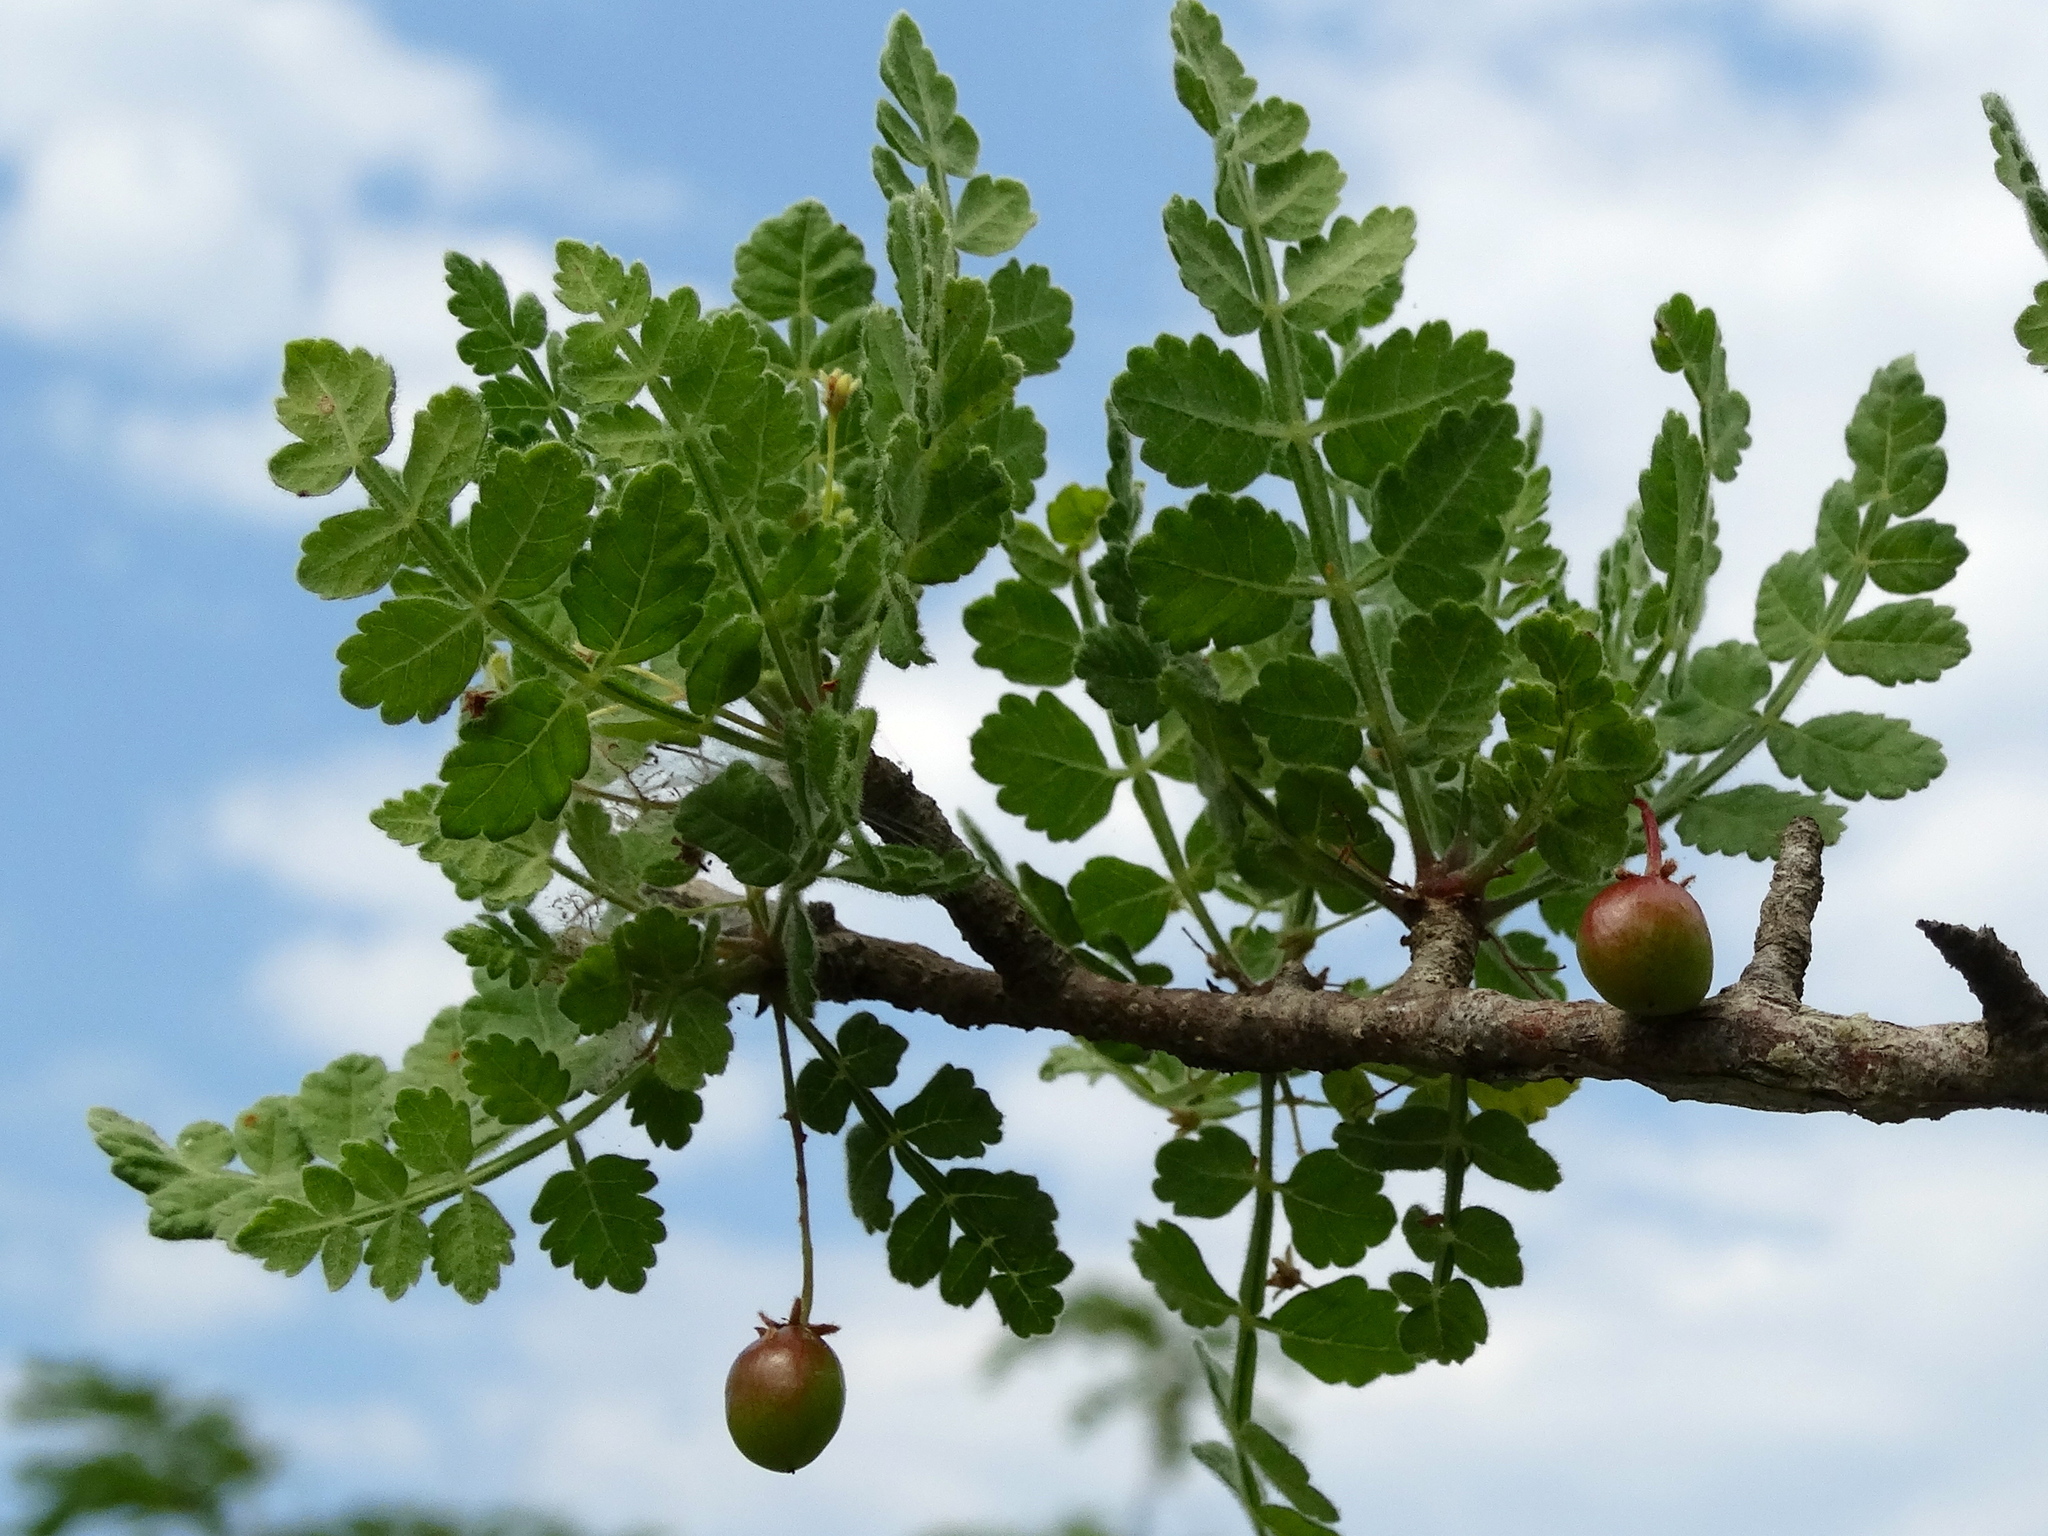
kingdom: Plantae
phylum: Tracheophyta
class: Magnoliopsida
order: Sapindales
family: Burseraceae
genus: Bursera
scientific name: Bursera ribana
